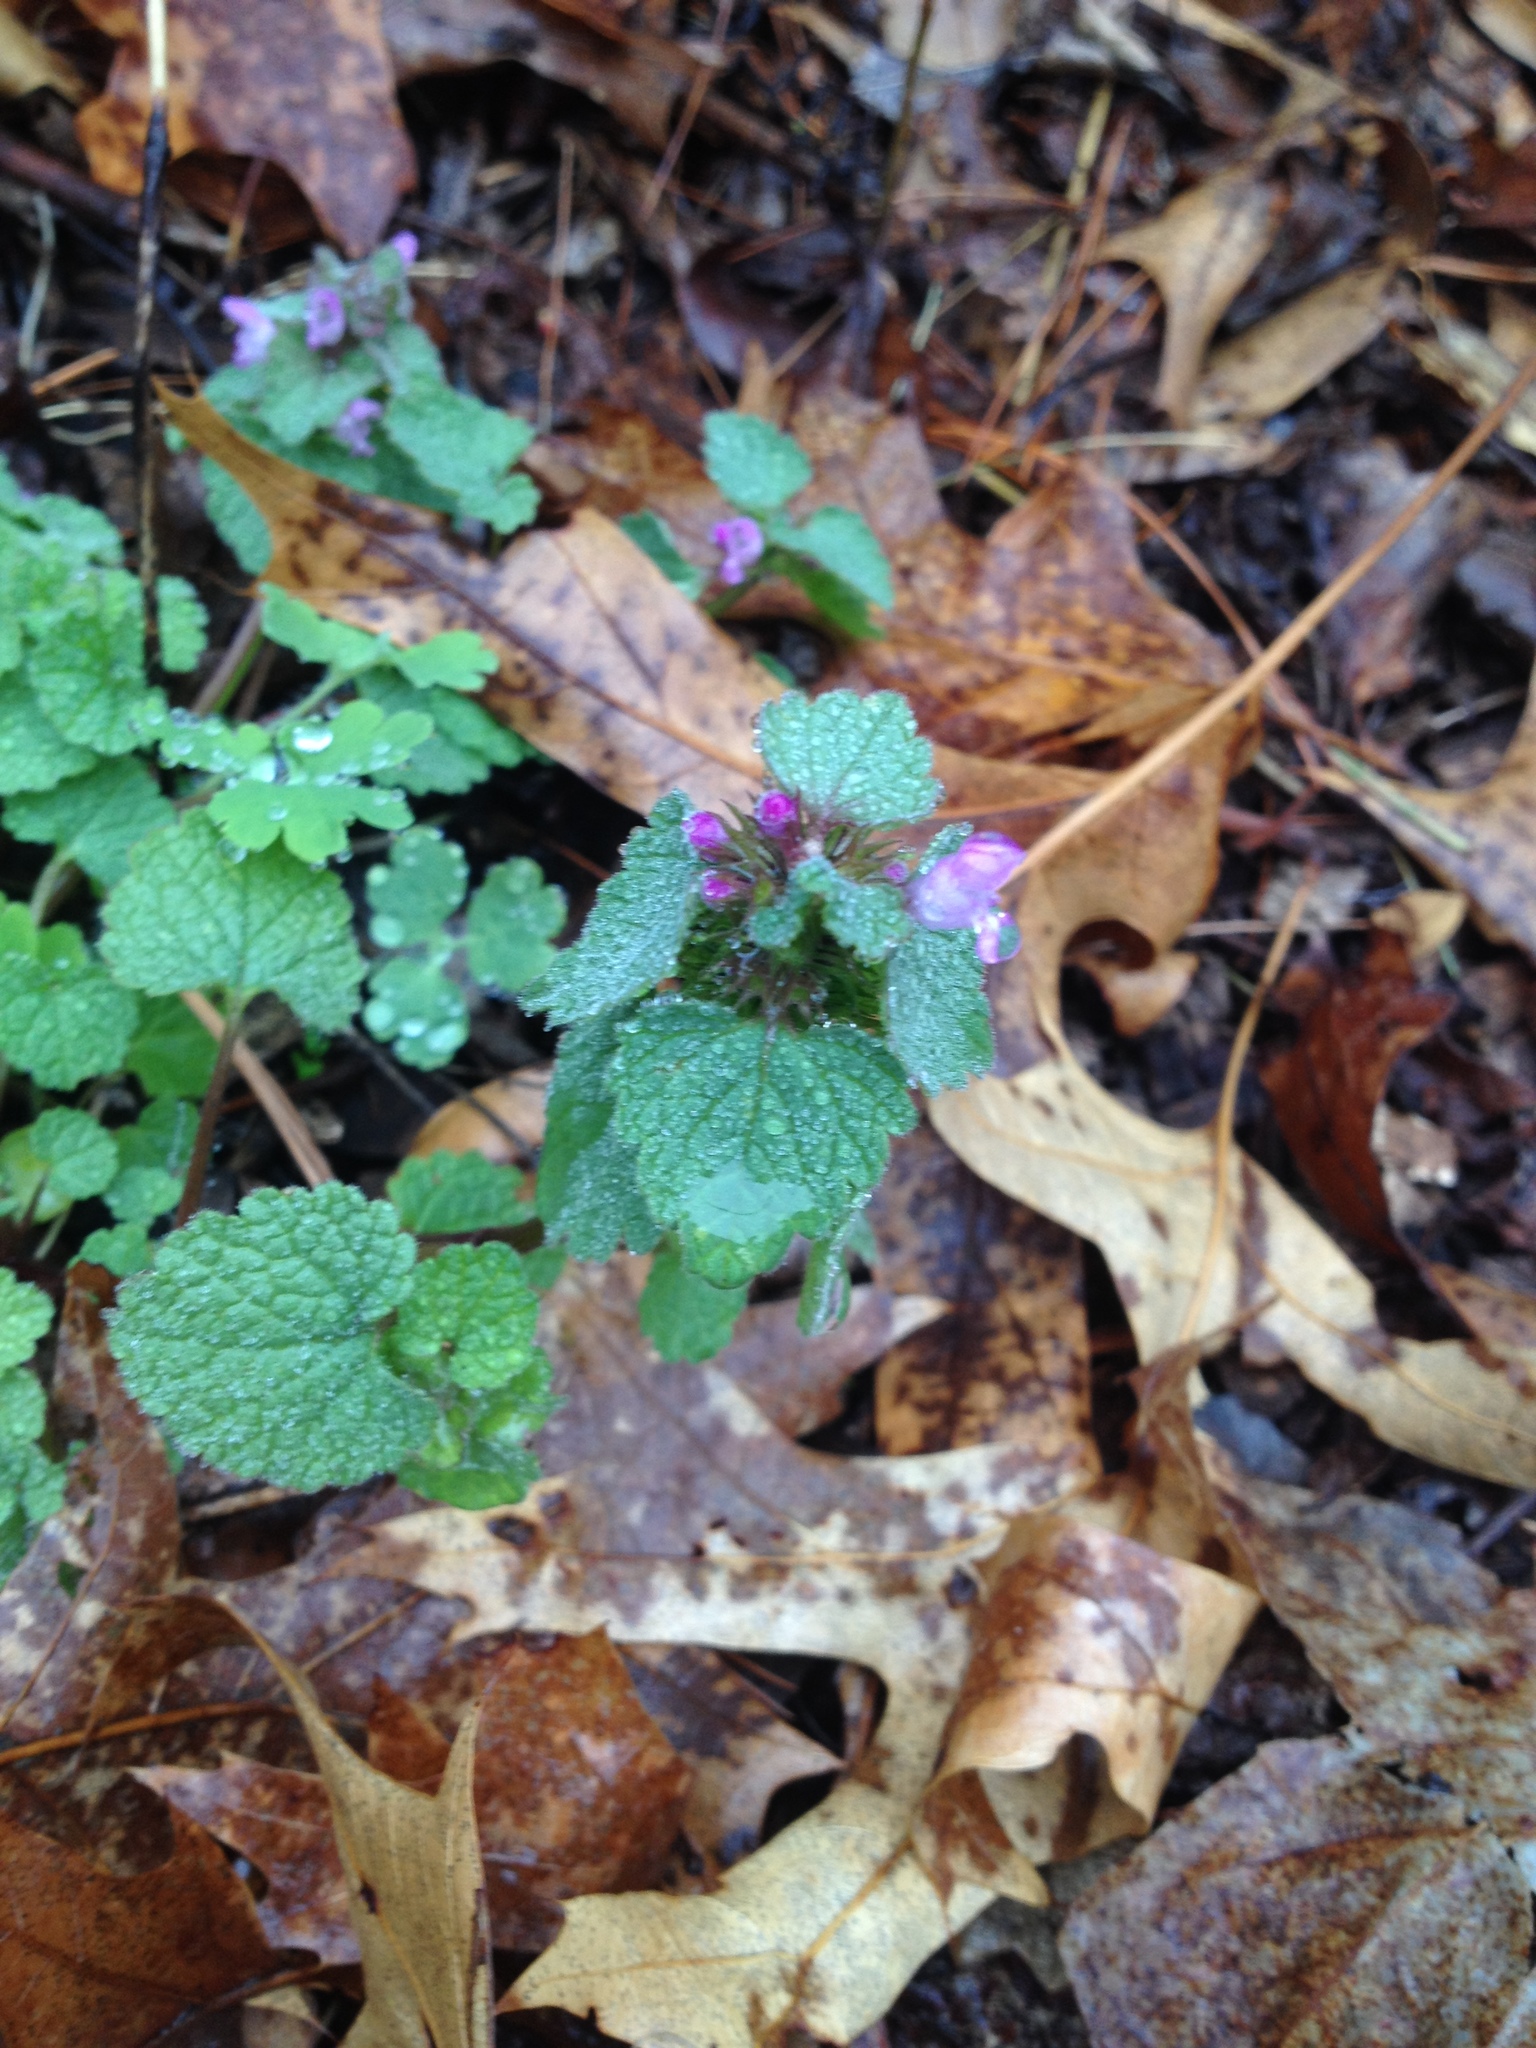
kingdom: Plantae
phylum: Tracheophyta
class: Magnoliopsida
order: Lamiales
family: Lamiaceae
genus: Lamium
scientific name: Lamium purpureum
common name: Red dead-nettle
